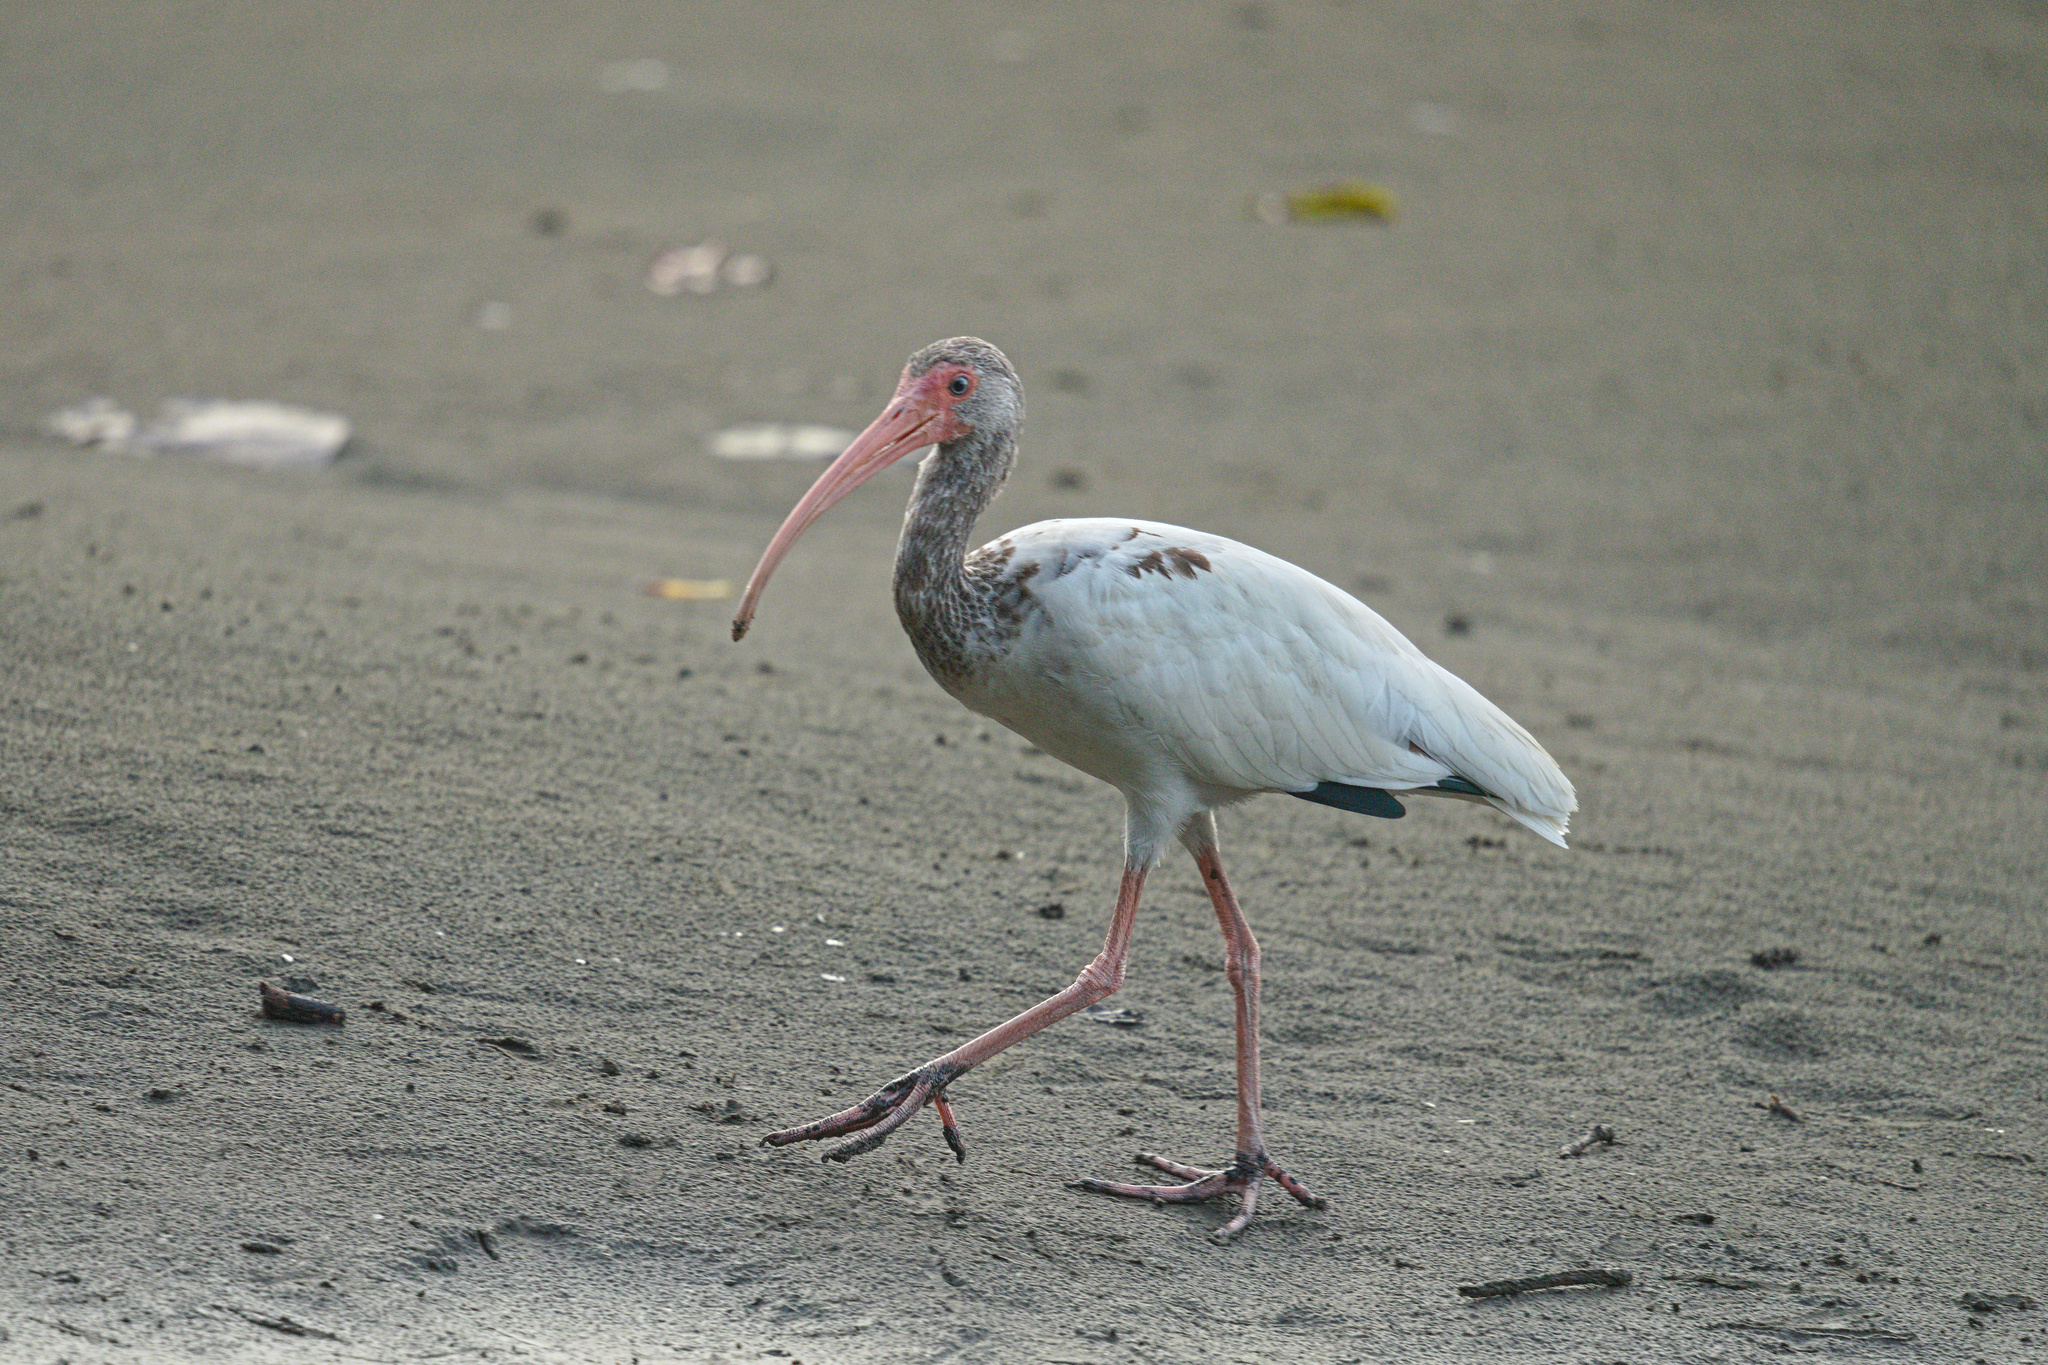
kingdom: Animalia
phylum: Chordata
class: Aves
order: Pelecaniformes
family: Threskiornithidae
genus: Eudocimus
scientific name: Eudocimus albus
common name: White ibis
